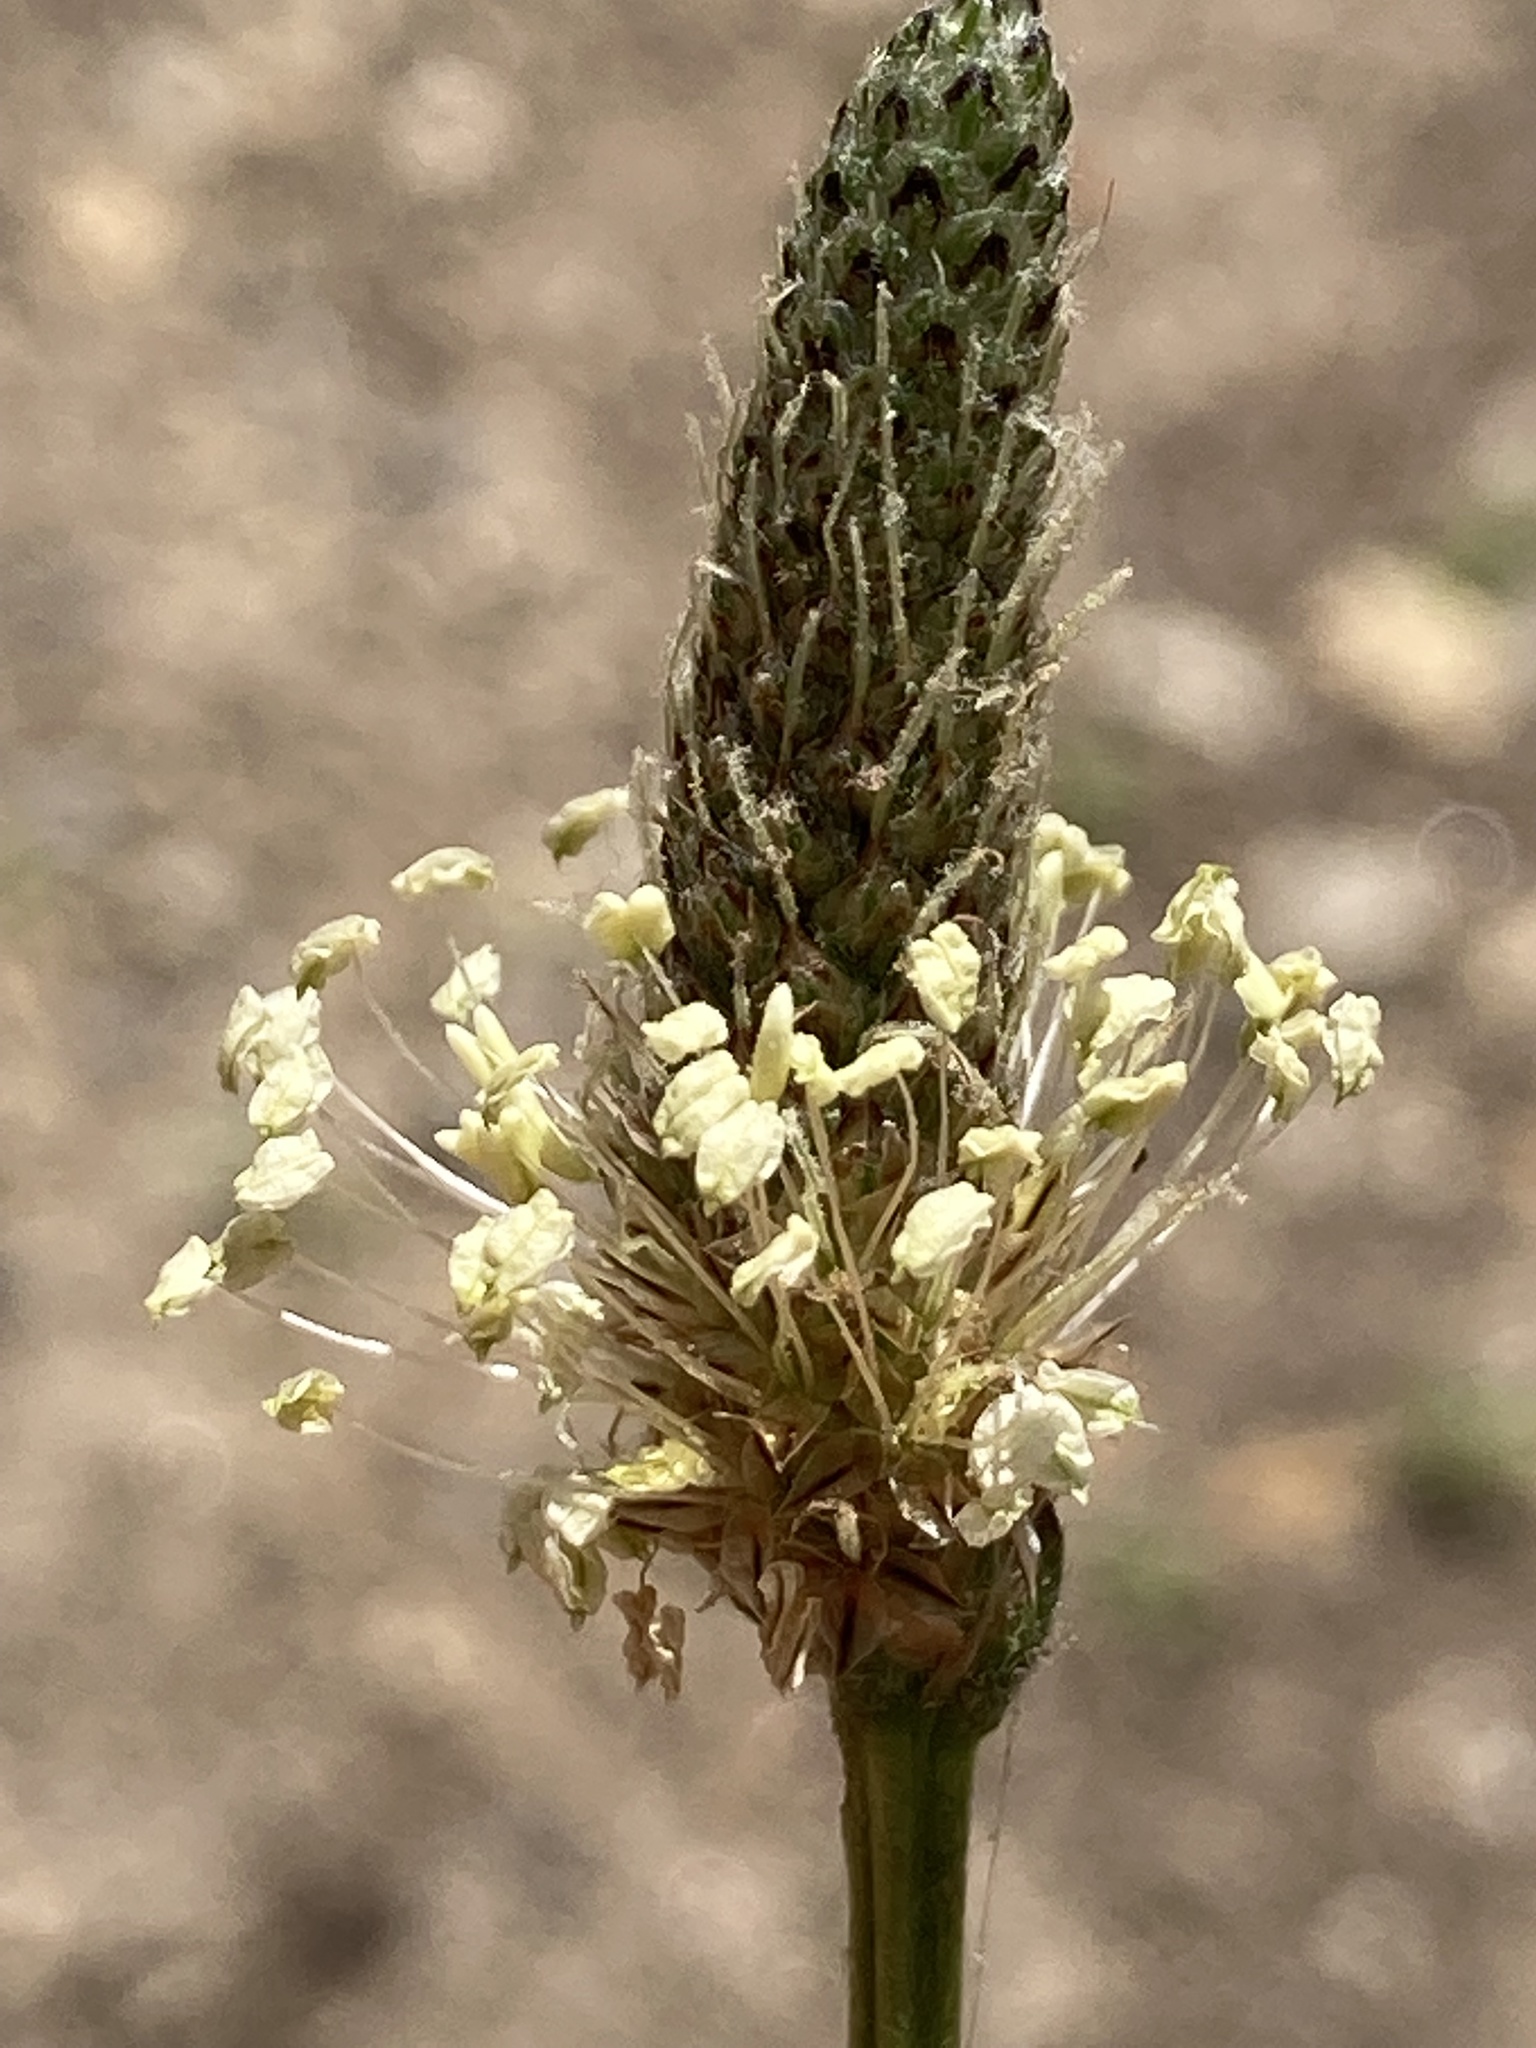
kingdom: Plantae
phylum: Tracheophyta
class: Magnoliopsida
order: Lamiales
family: Plantaginaceae
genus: Plantago
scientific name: Plantago lanceolata
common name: Ribwort plantain
